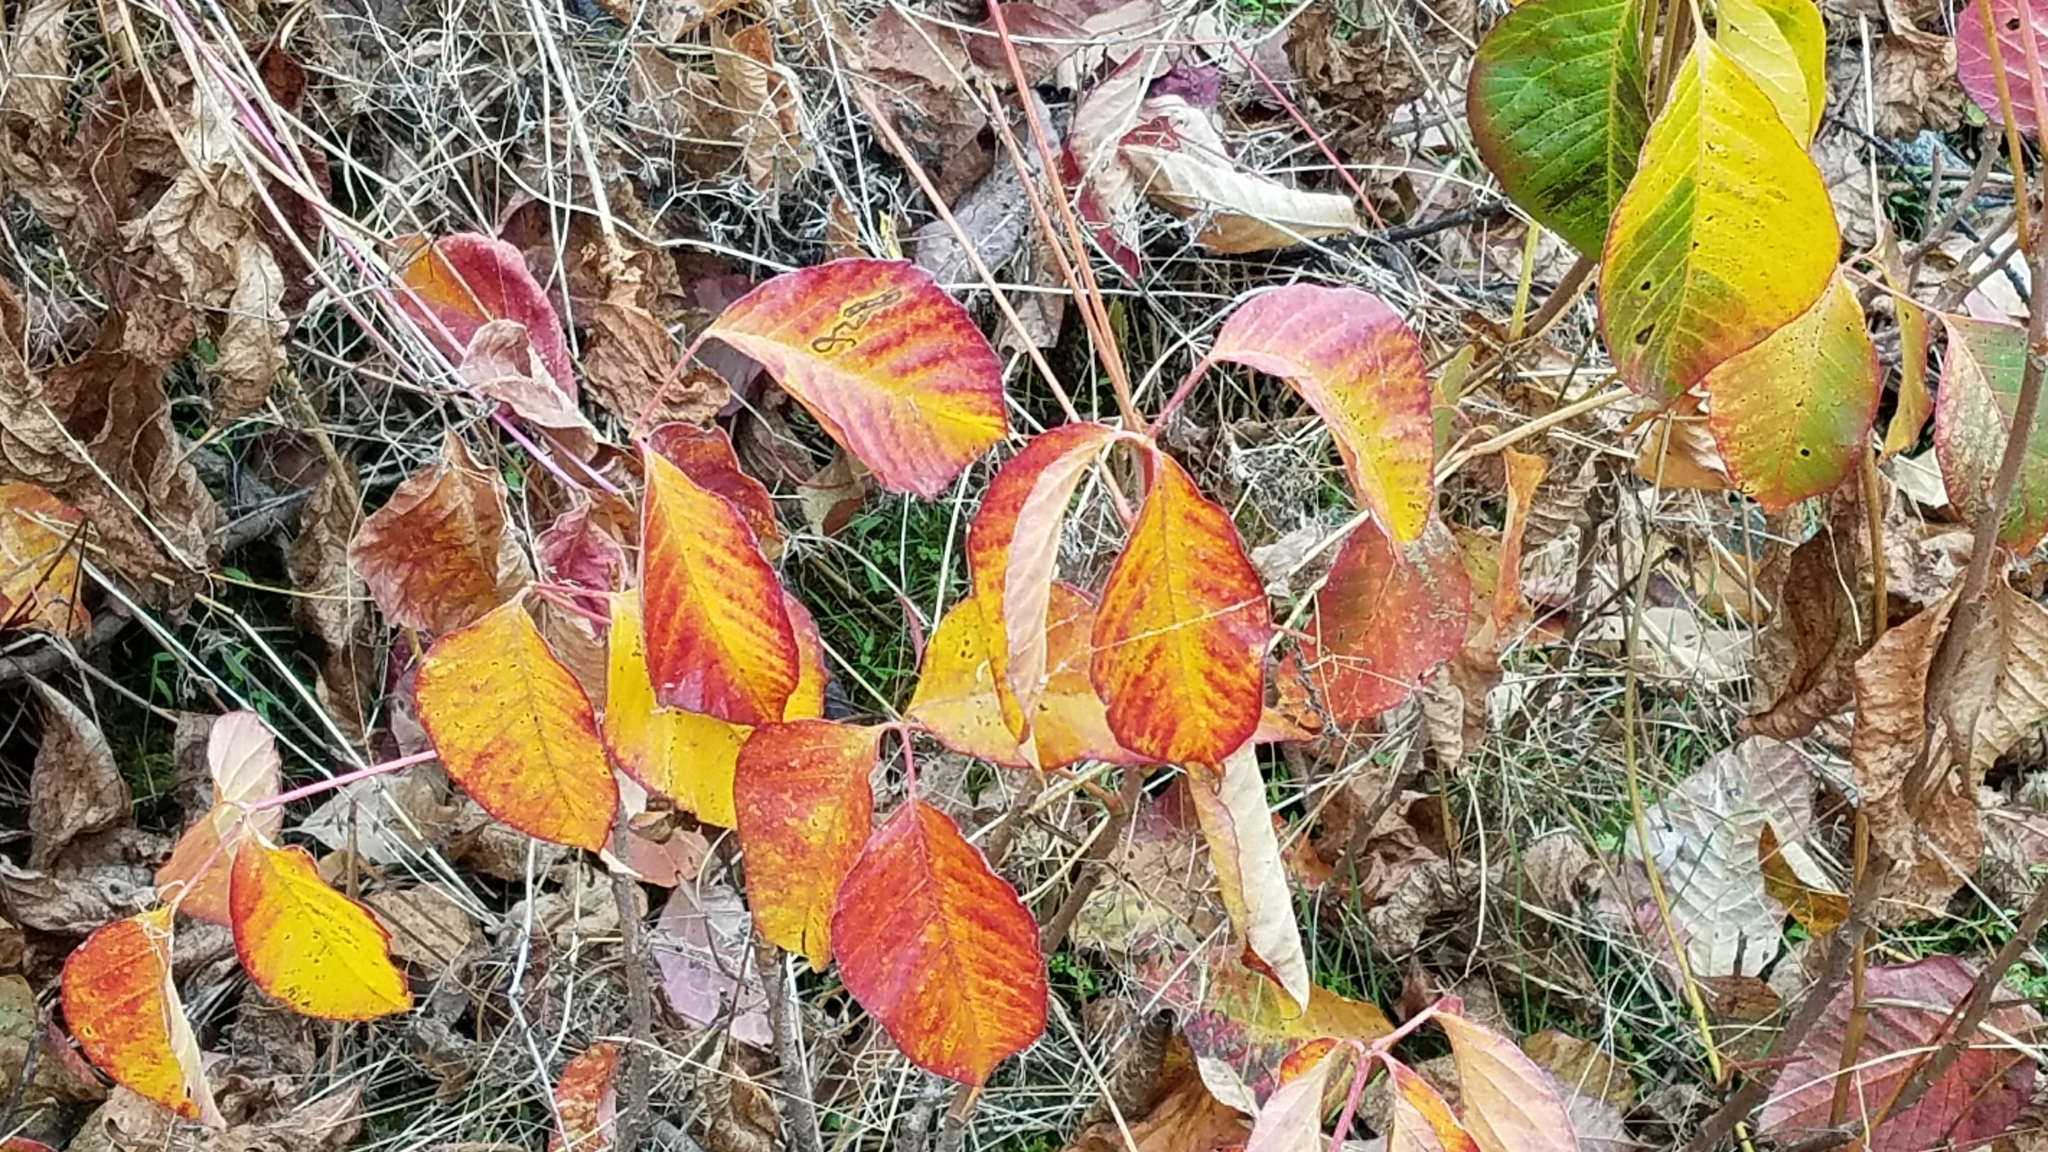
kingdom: Plantae
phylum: Tracheophyta
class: Magnoliopsida
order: Sapindales
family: Anacardiaceae
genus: Toxicodendron
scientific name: Toxicodendron rydbergii
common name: Rydberg's poison-ivy
